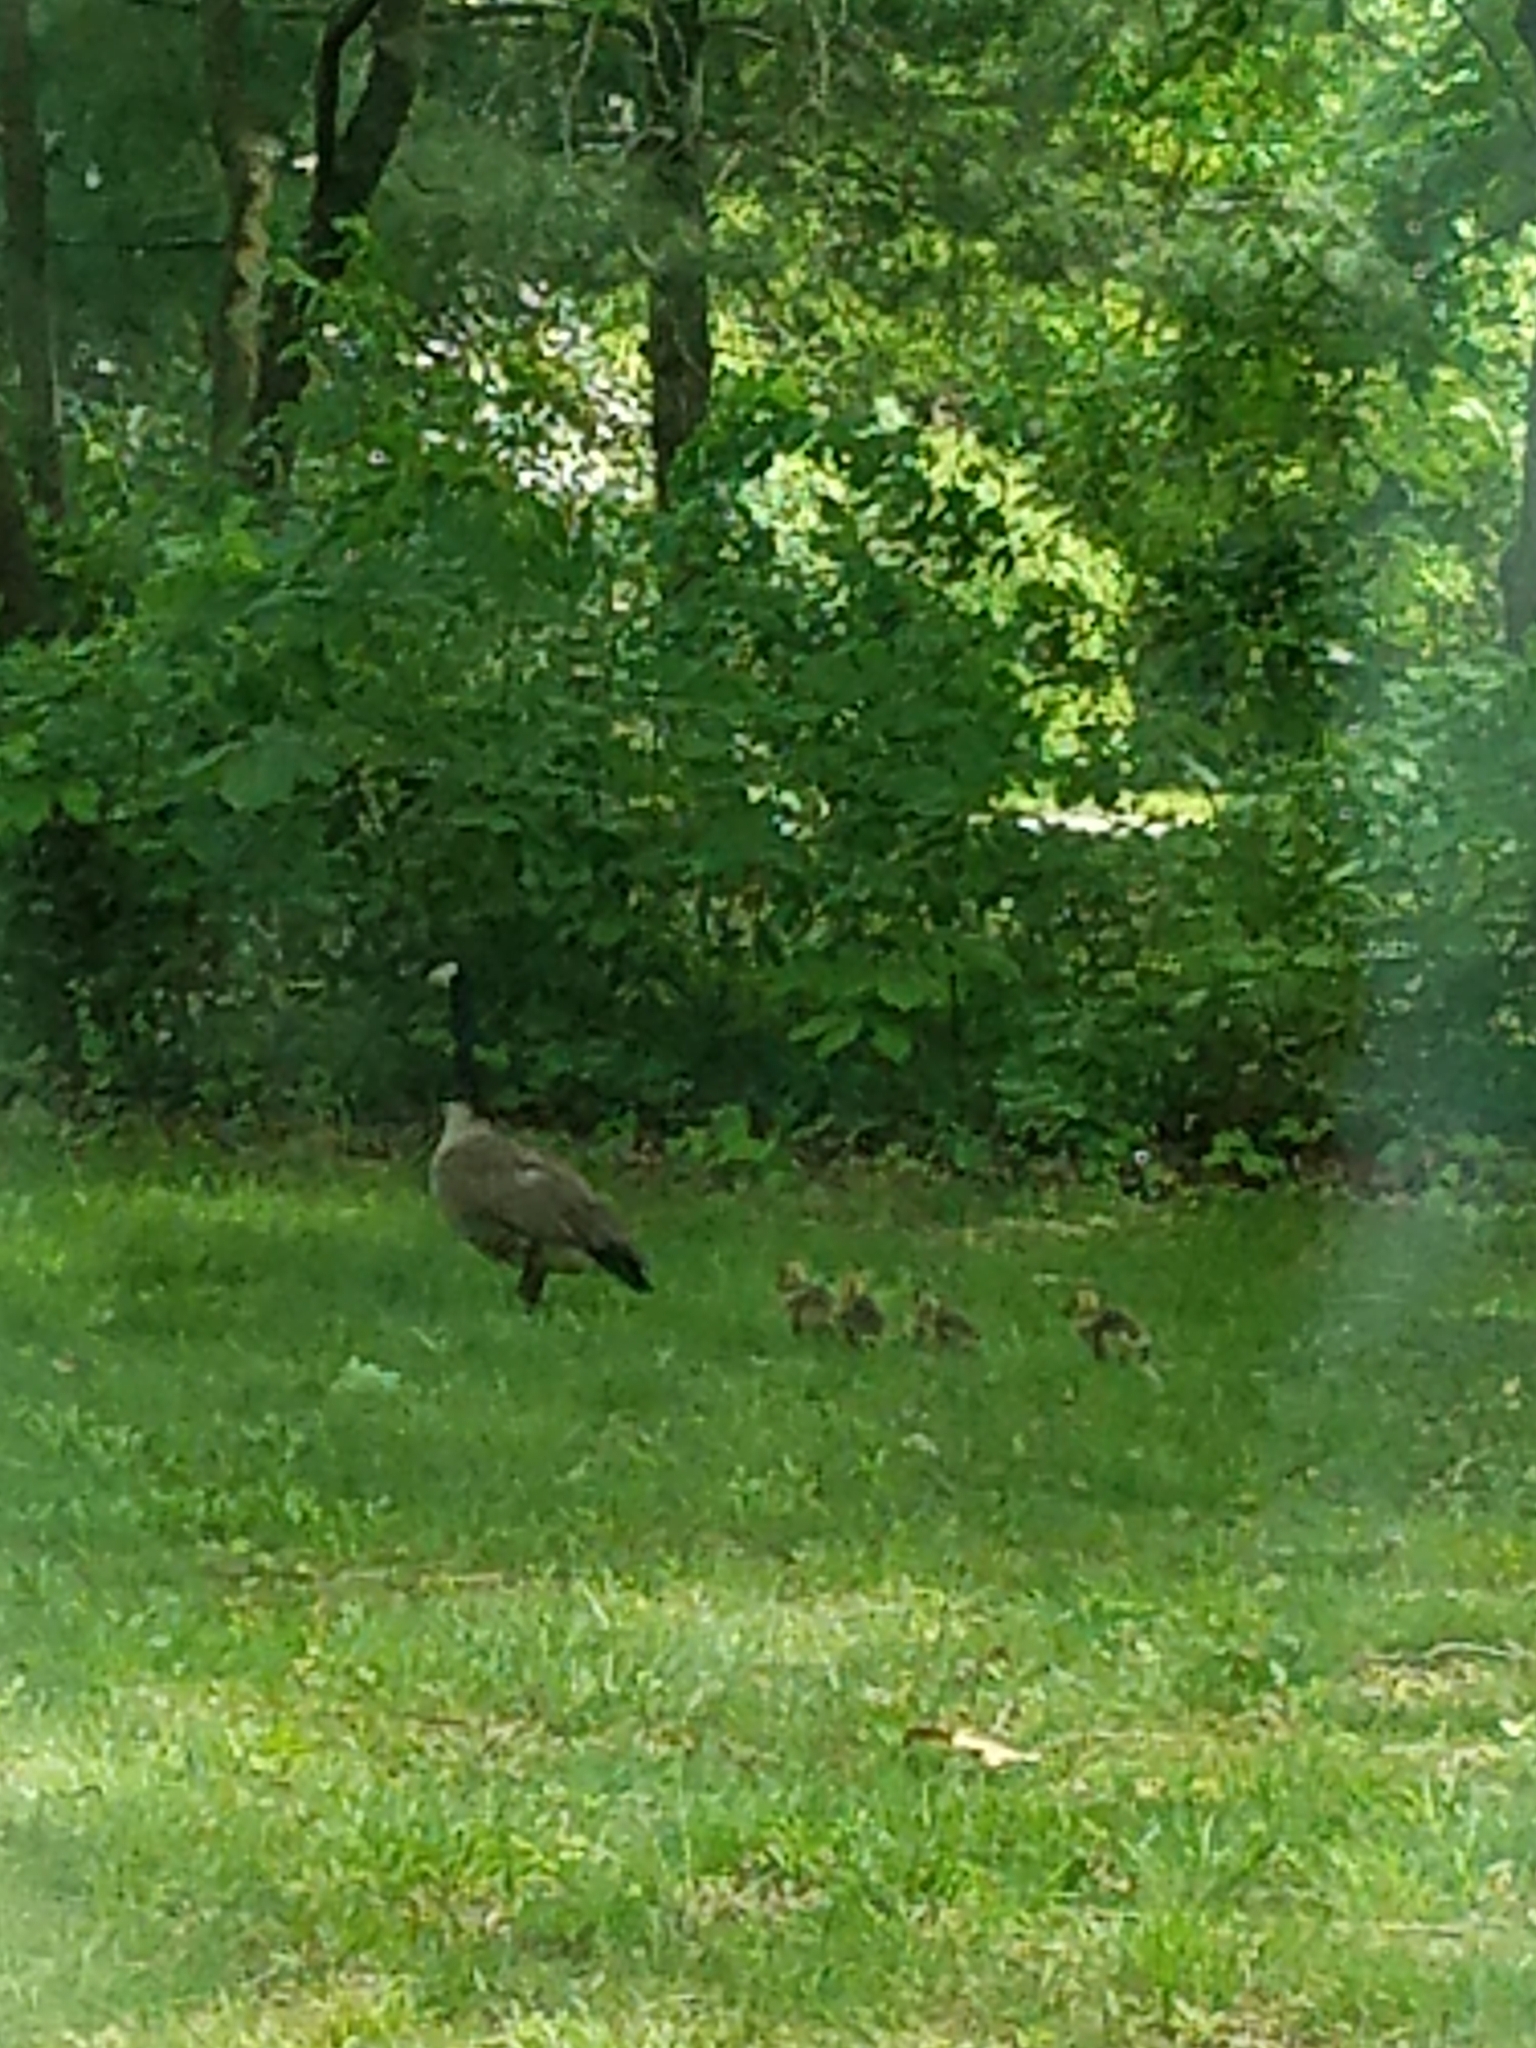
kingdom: Animalia
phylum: Chordata
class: Aves
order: Anseriformes
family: Anatidae
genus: Branta
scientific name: Branta canadensis
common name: Canada goose
